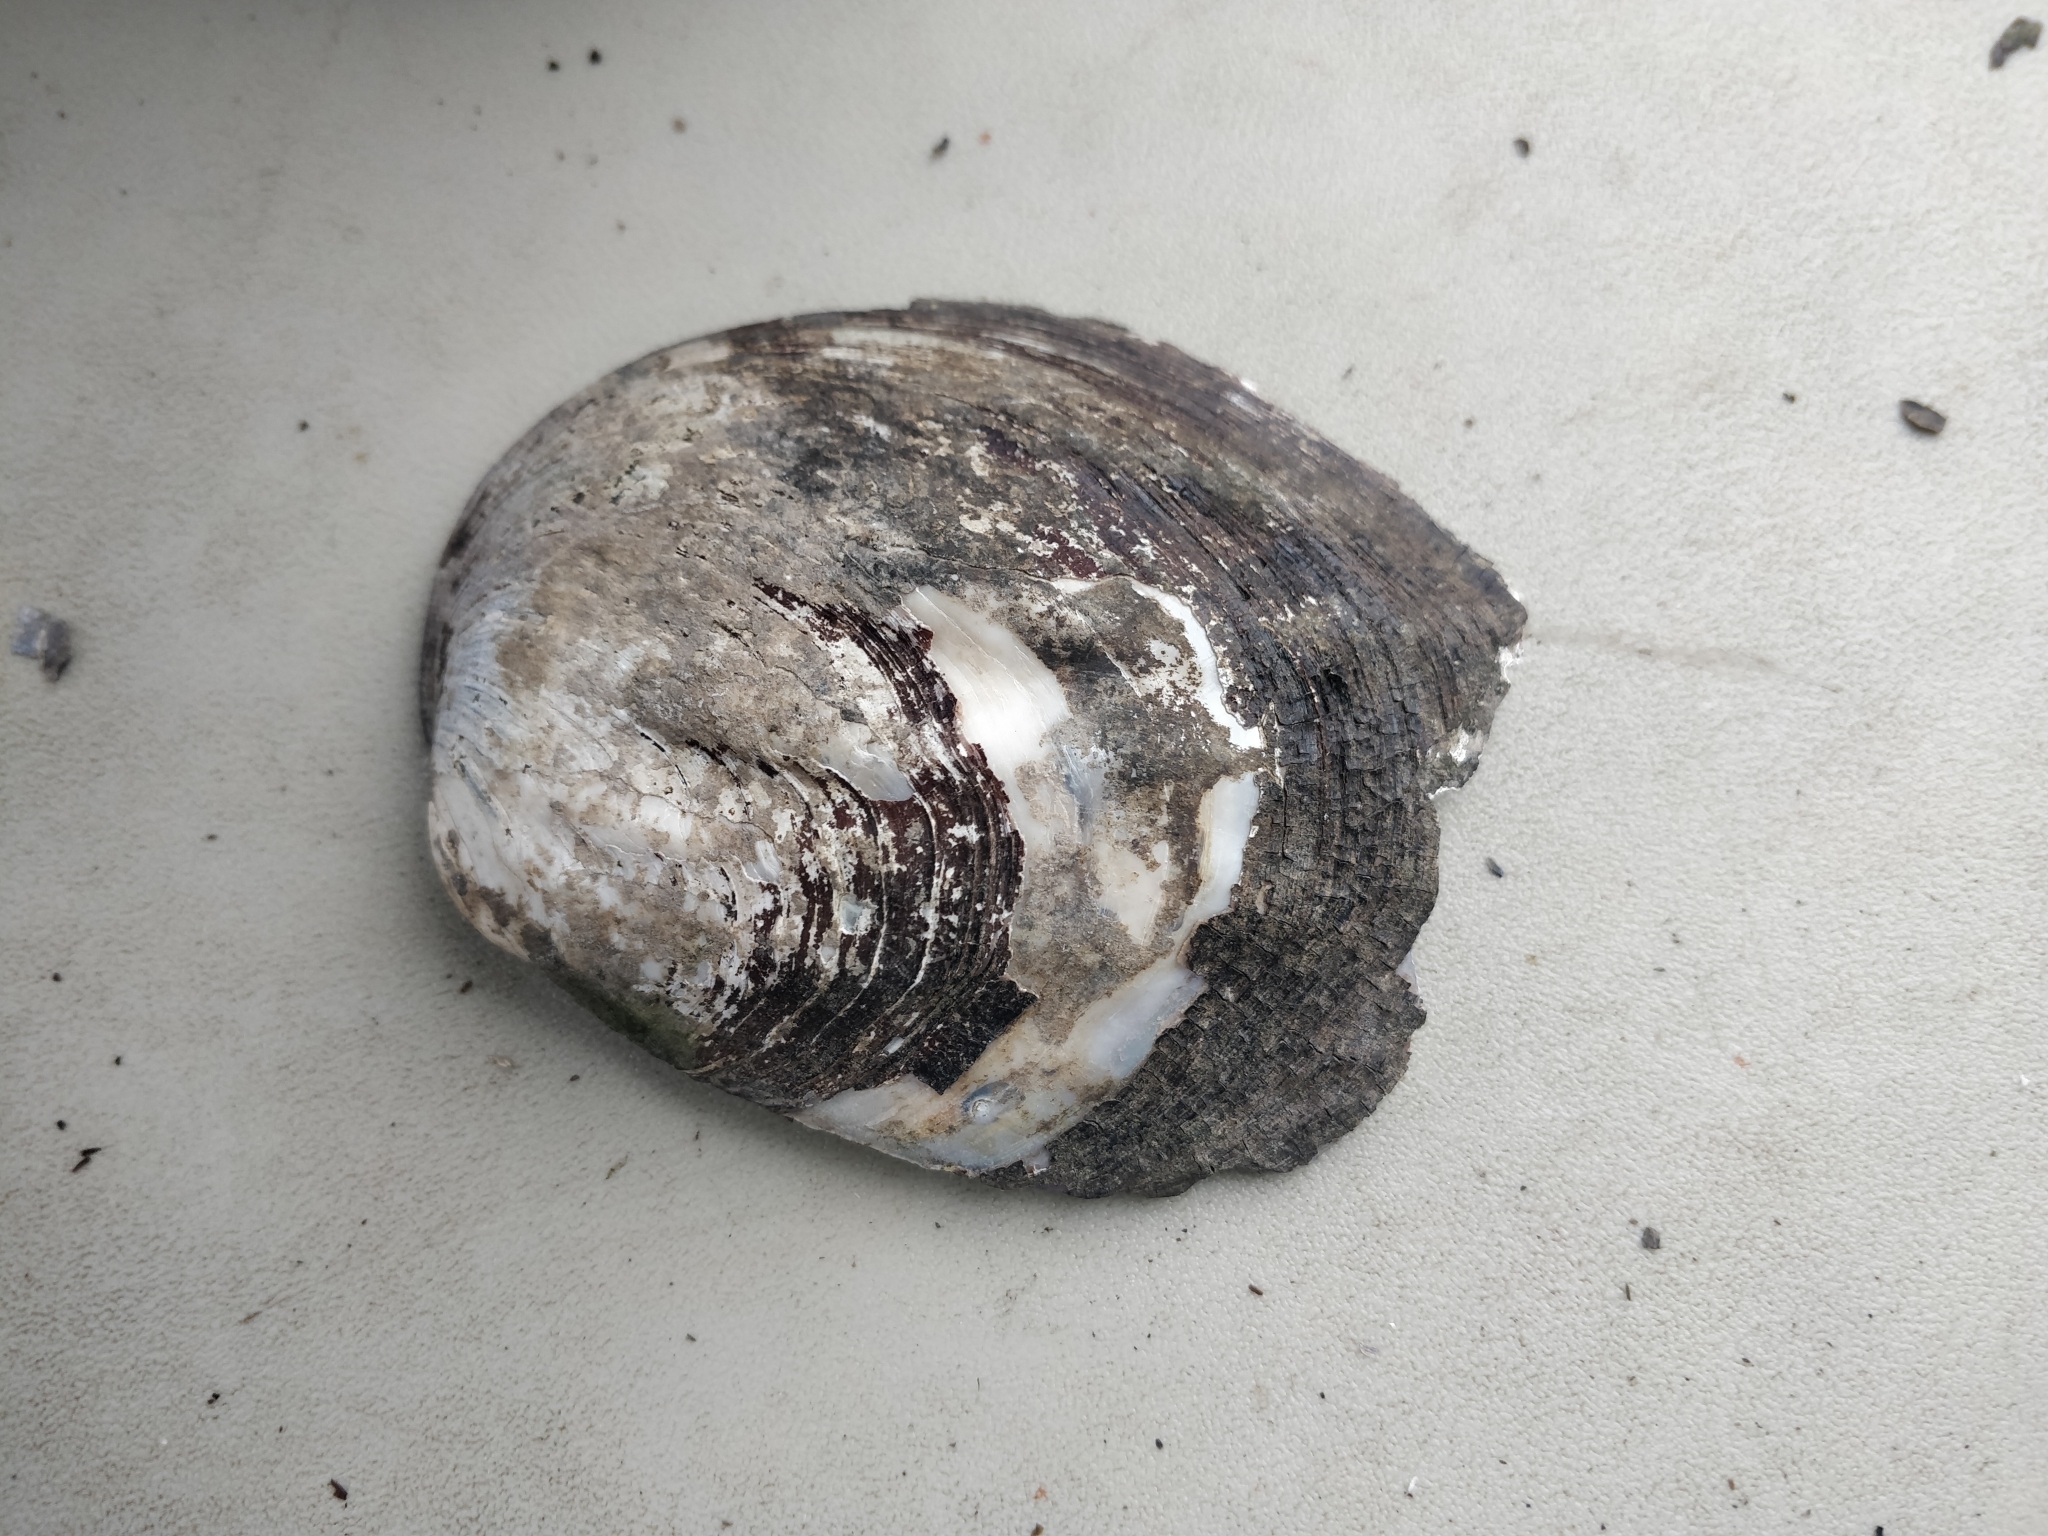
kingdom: Animalia
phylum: Mollusca
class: Bivalvia
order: Unionida
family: Unionidae
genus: Amblema
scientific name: Amblema plicata
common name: Threeridge
